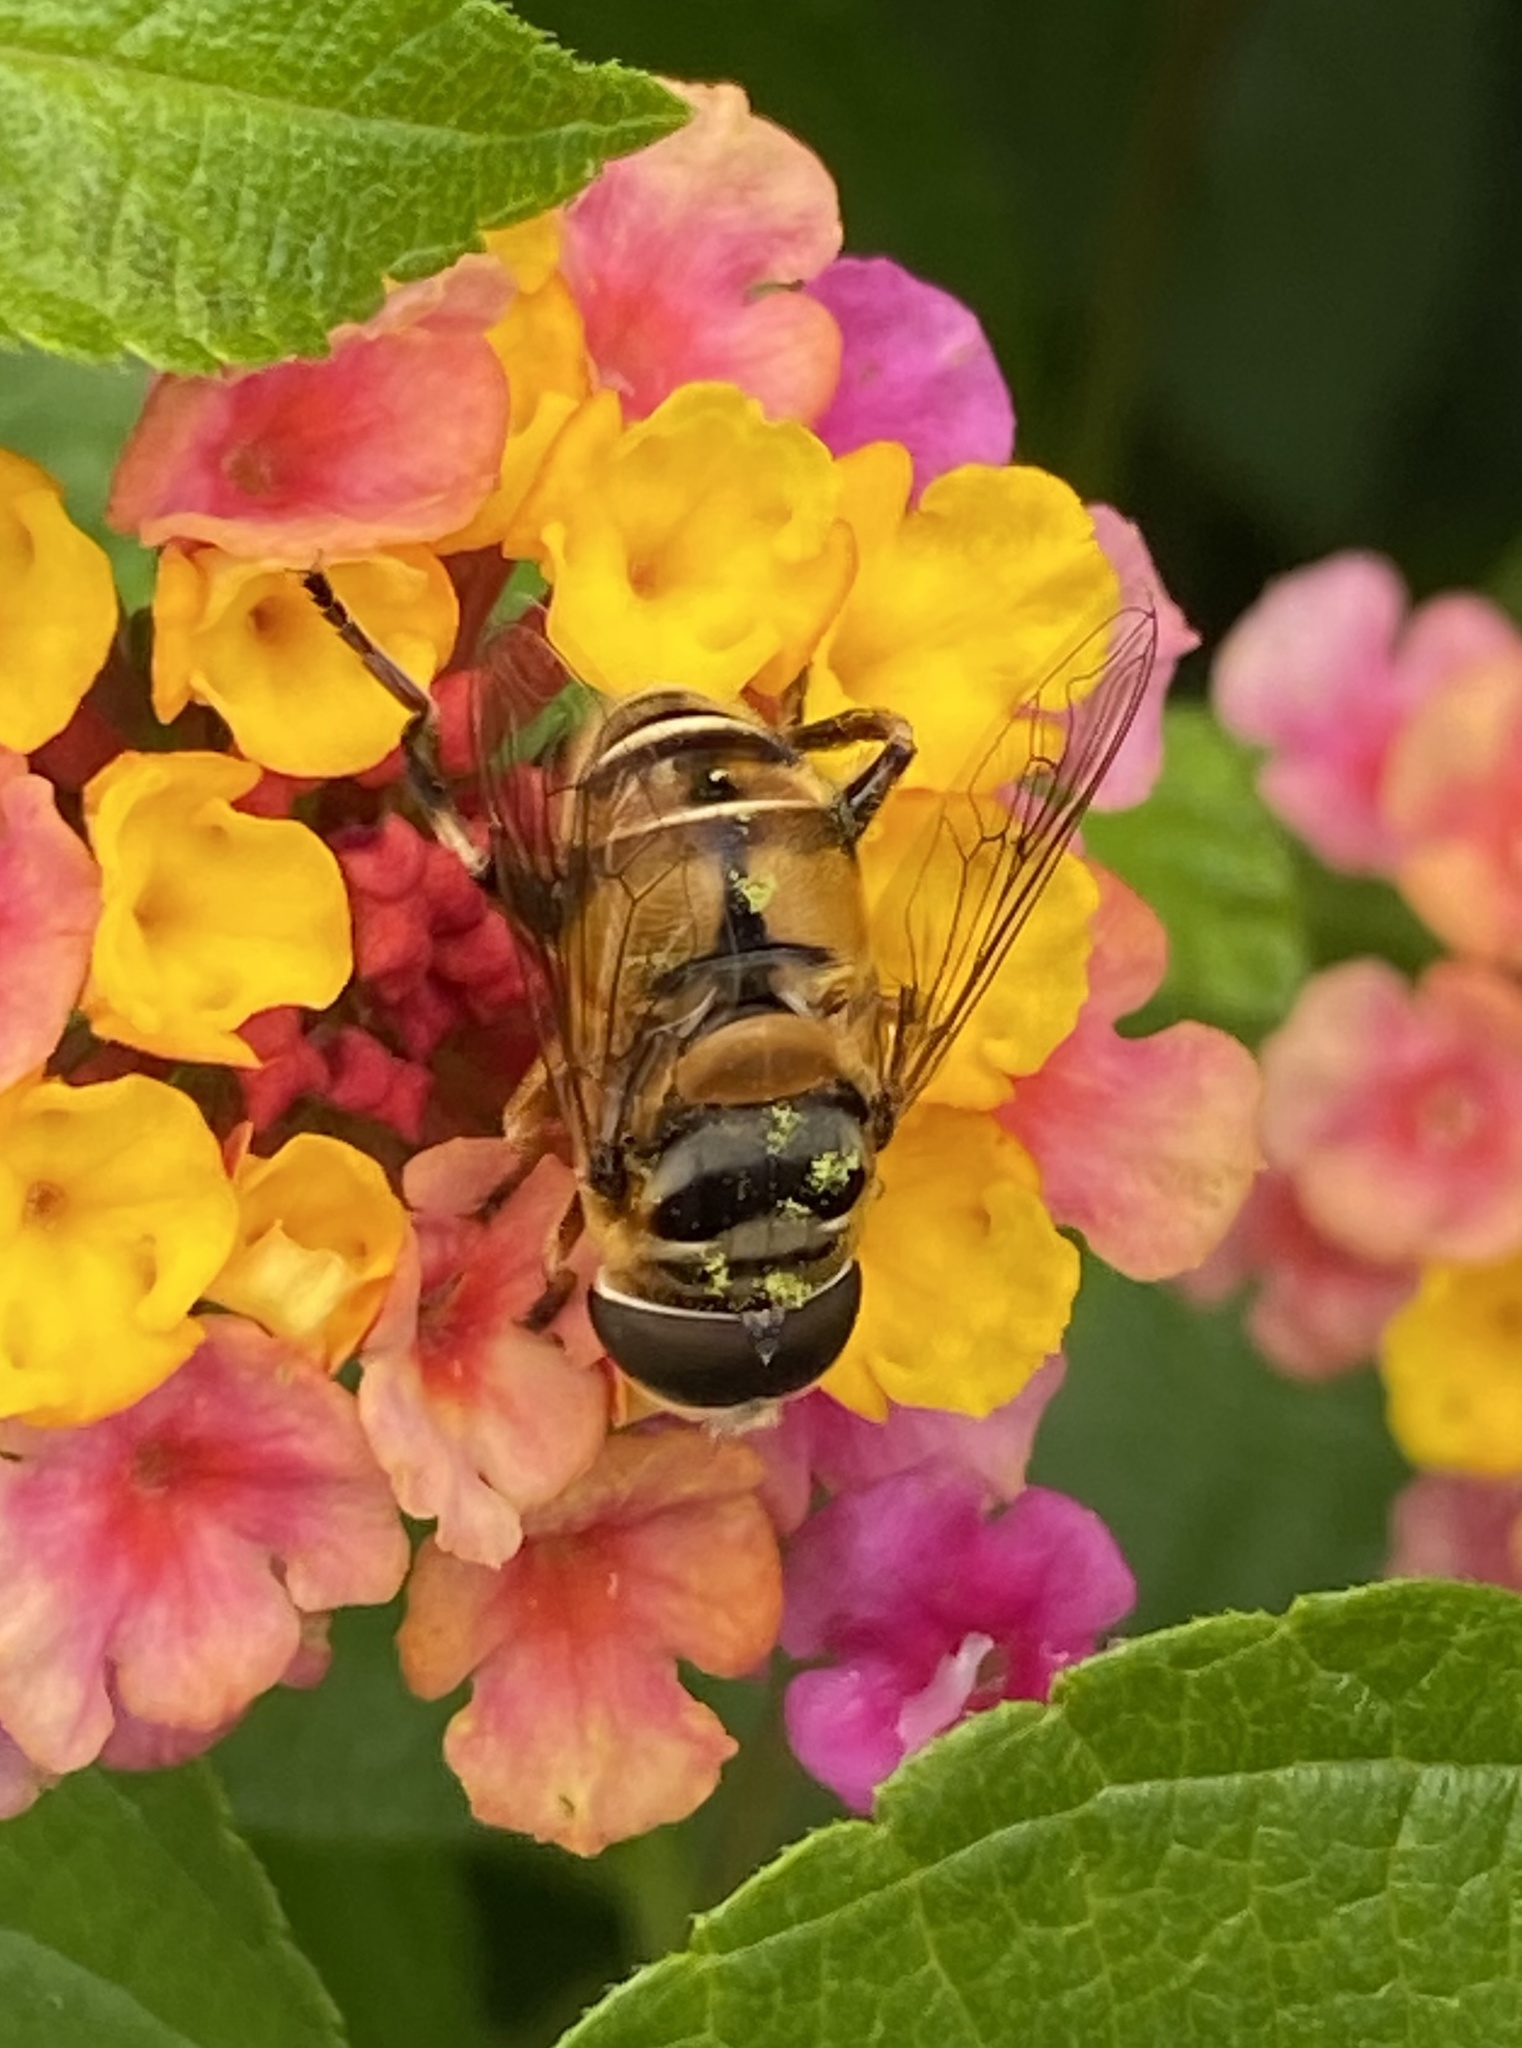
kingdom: Animalia
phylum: Arthropoda
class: Insecta
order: Diptera
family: Syrphidae
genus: Palpada
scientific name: Palpada vinetorum
